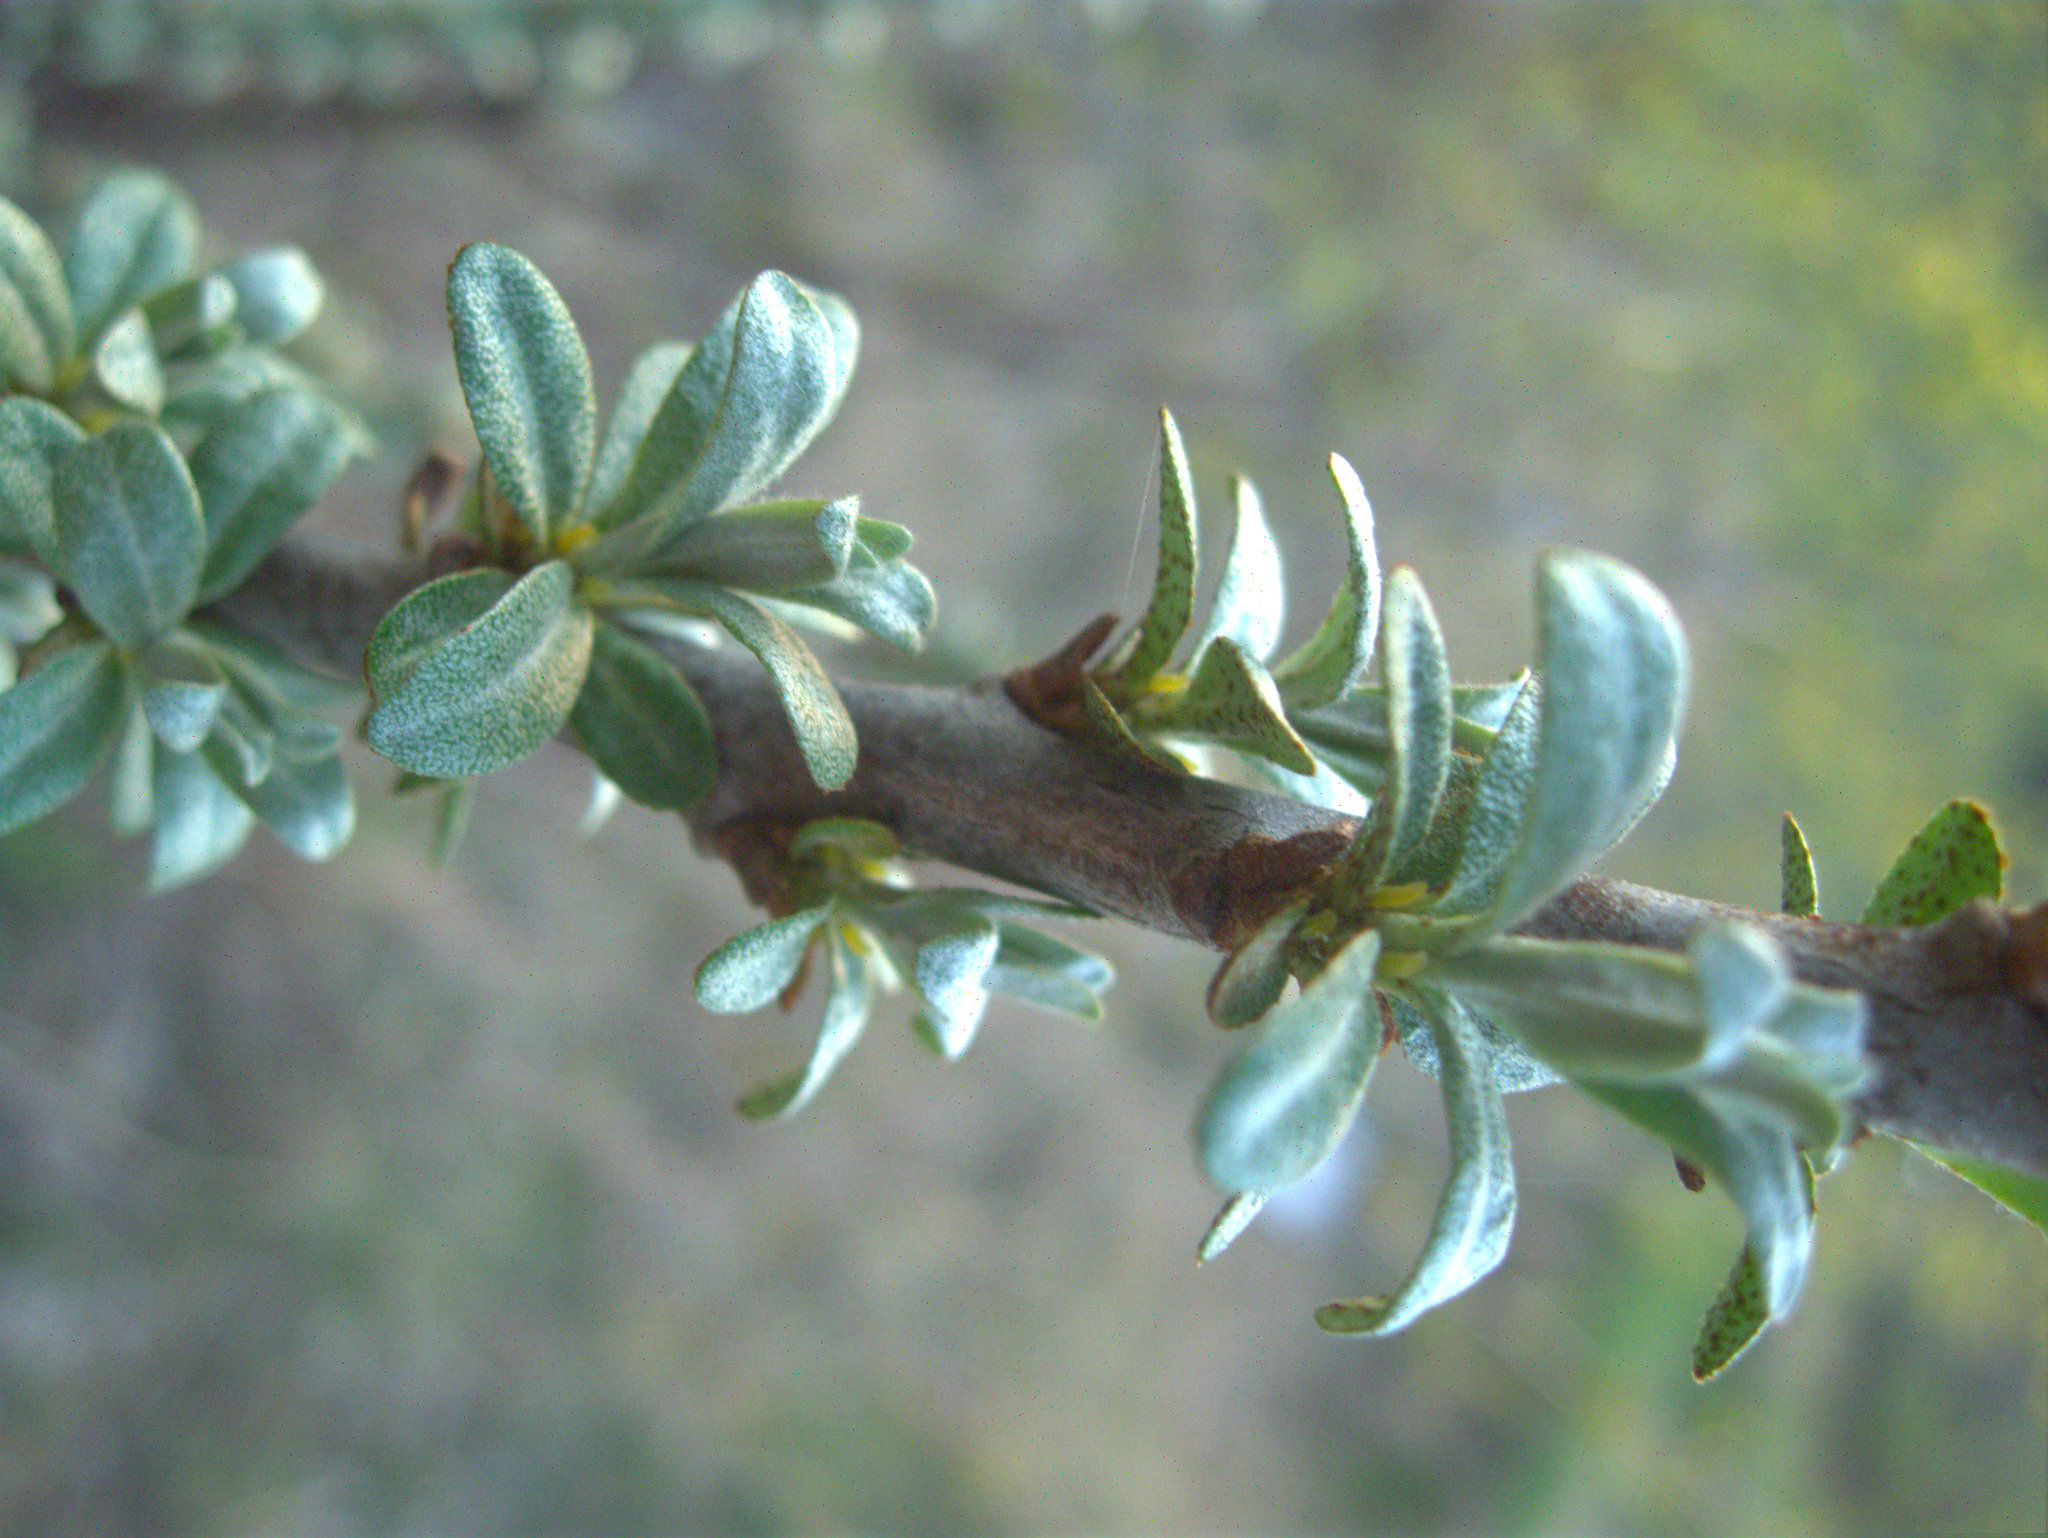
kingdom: Plantae
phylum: Tracheophyta
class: Magnoliopsida
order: Rosales
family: Elaeagnaceae
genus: Hippophae
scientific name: Hippophae rhamnoides
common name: Sea-buckthorn
